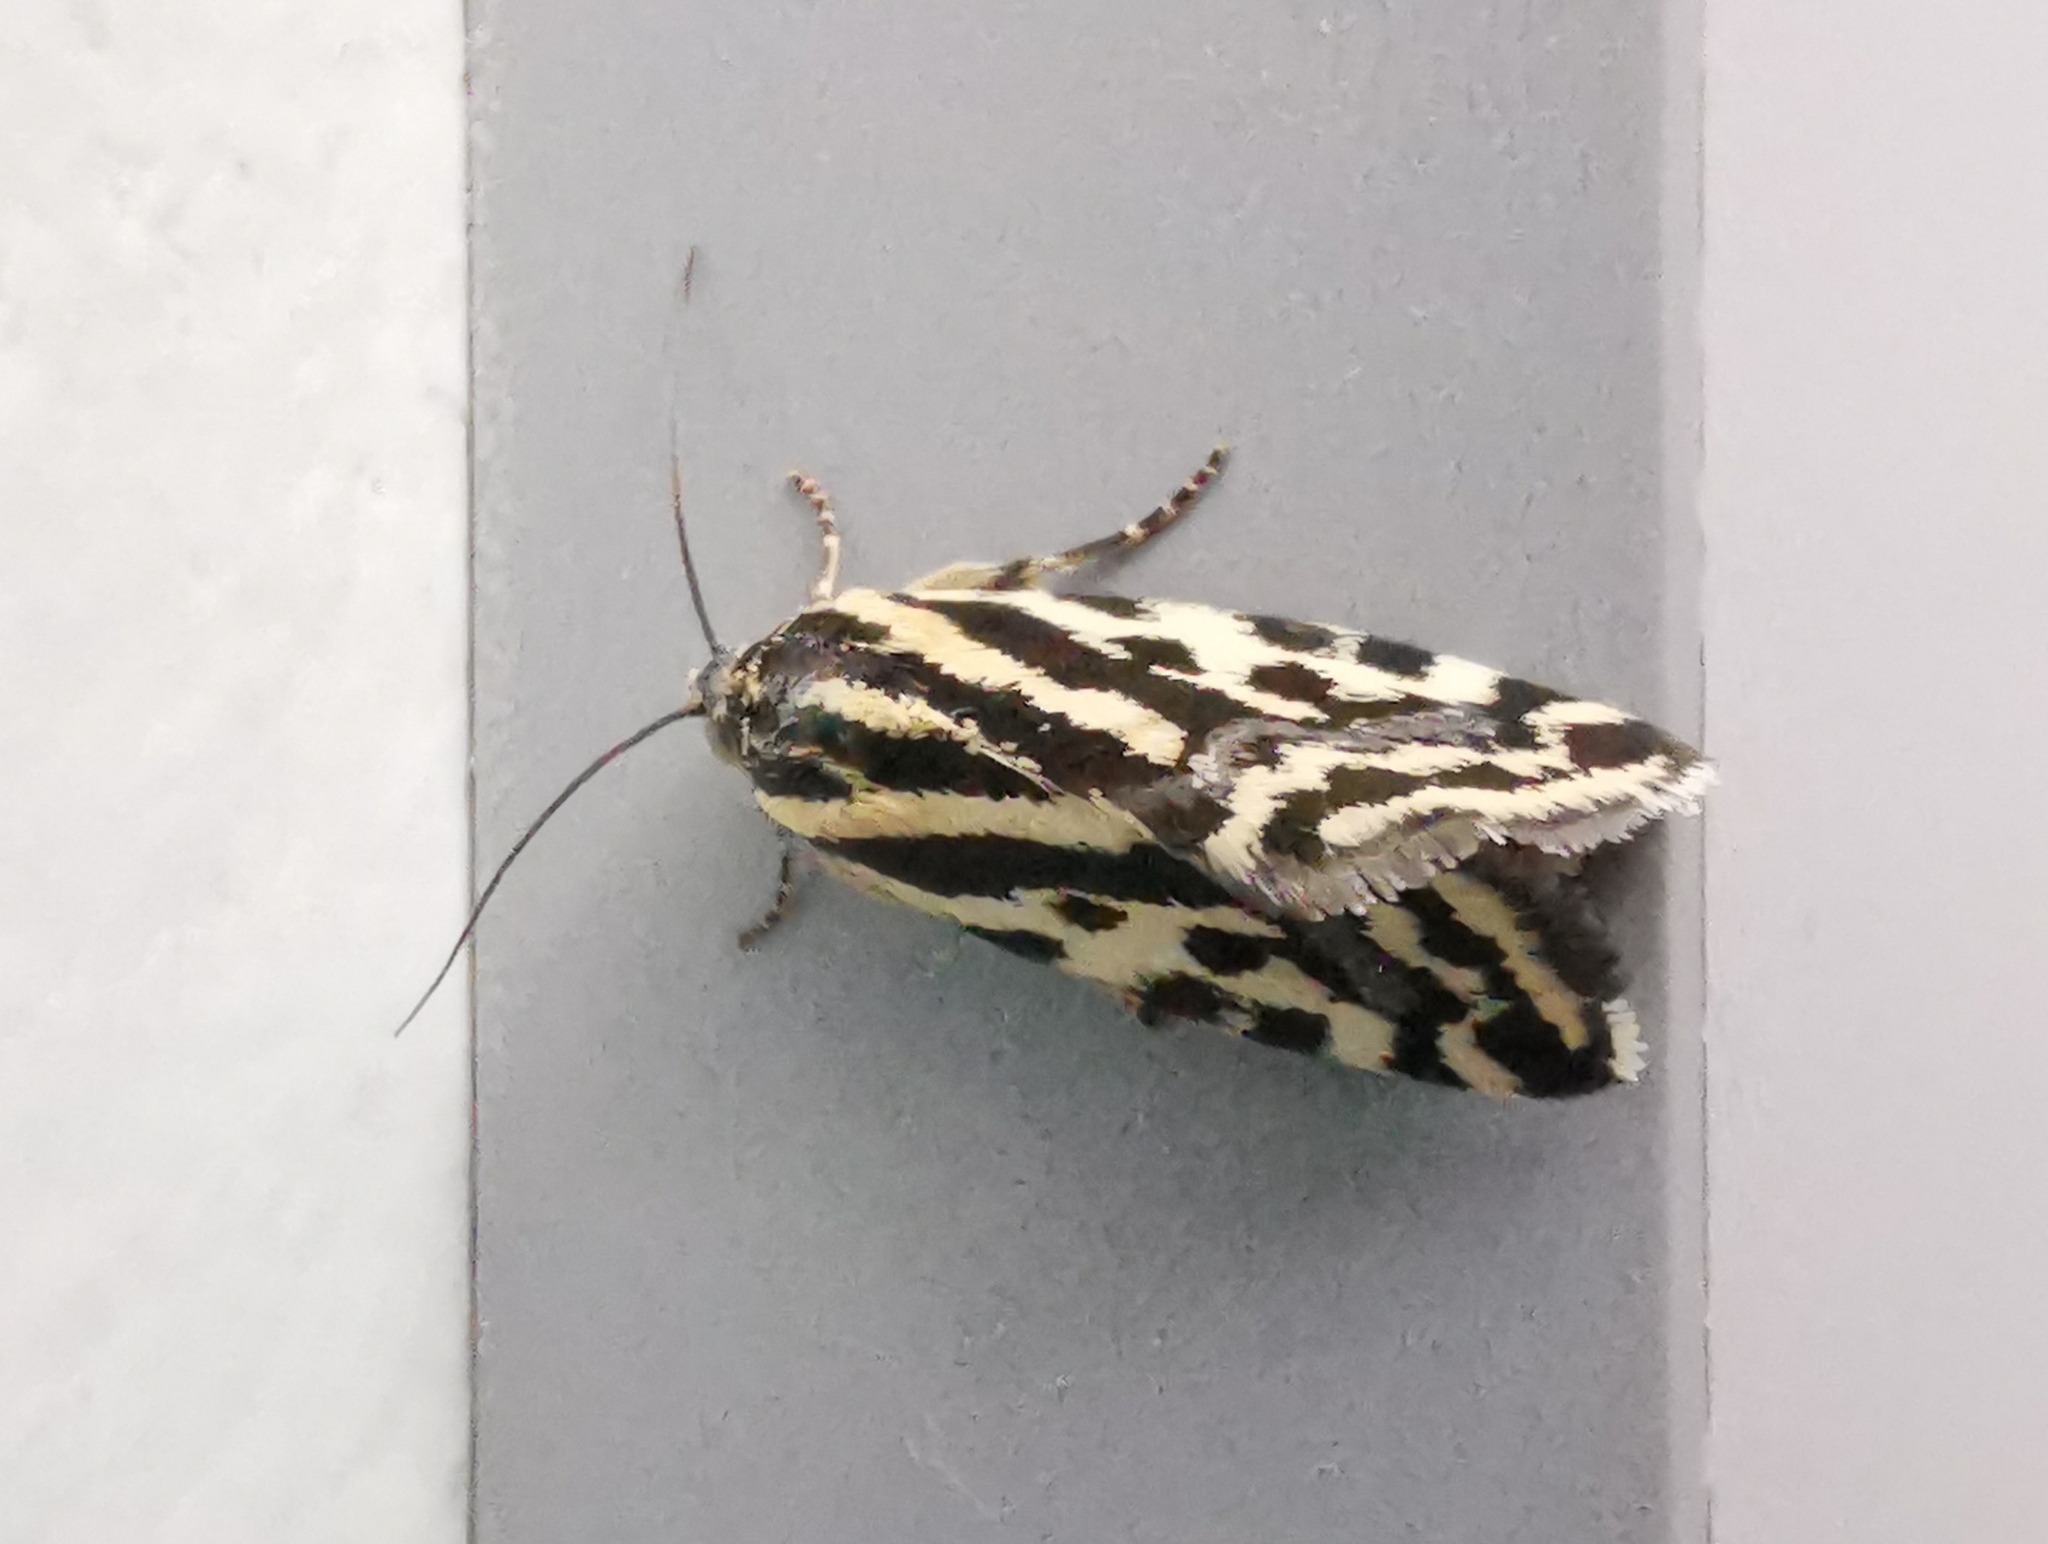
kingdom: Animalia
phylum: Arthropoda
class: Insecta
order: Lepidoptera
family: Noctuidae
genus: Acontia
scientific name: Acontia trabealis
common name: Spotted sulphur
